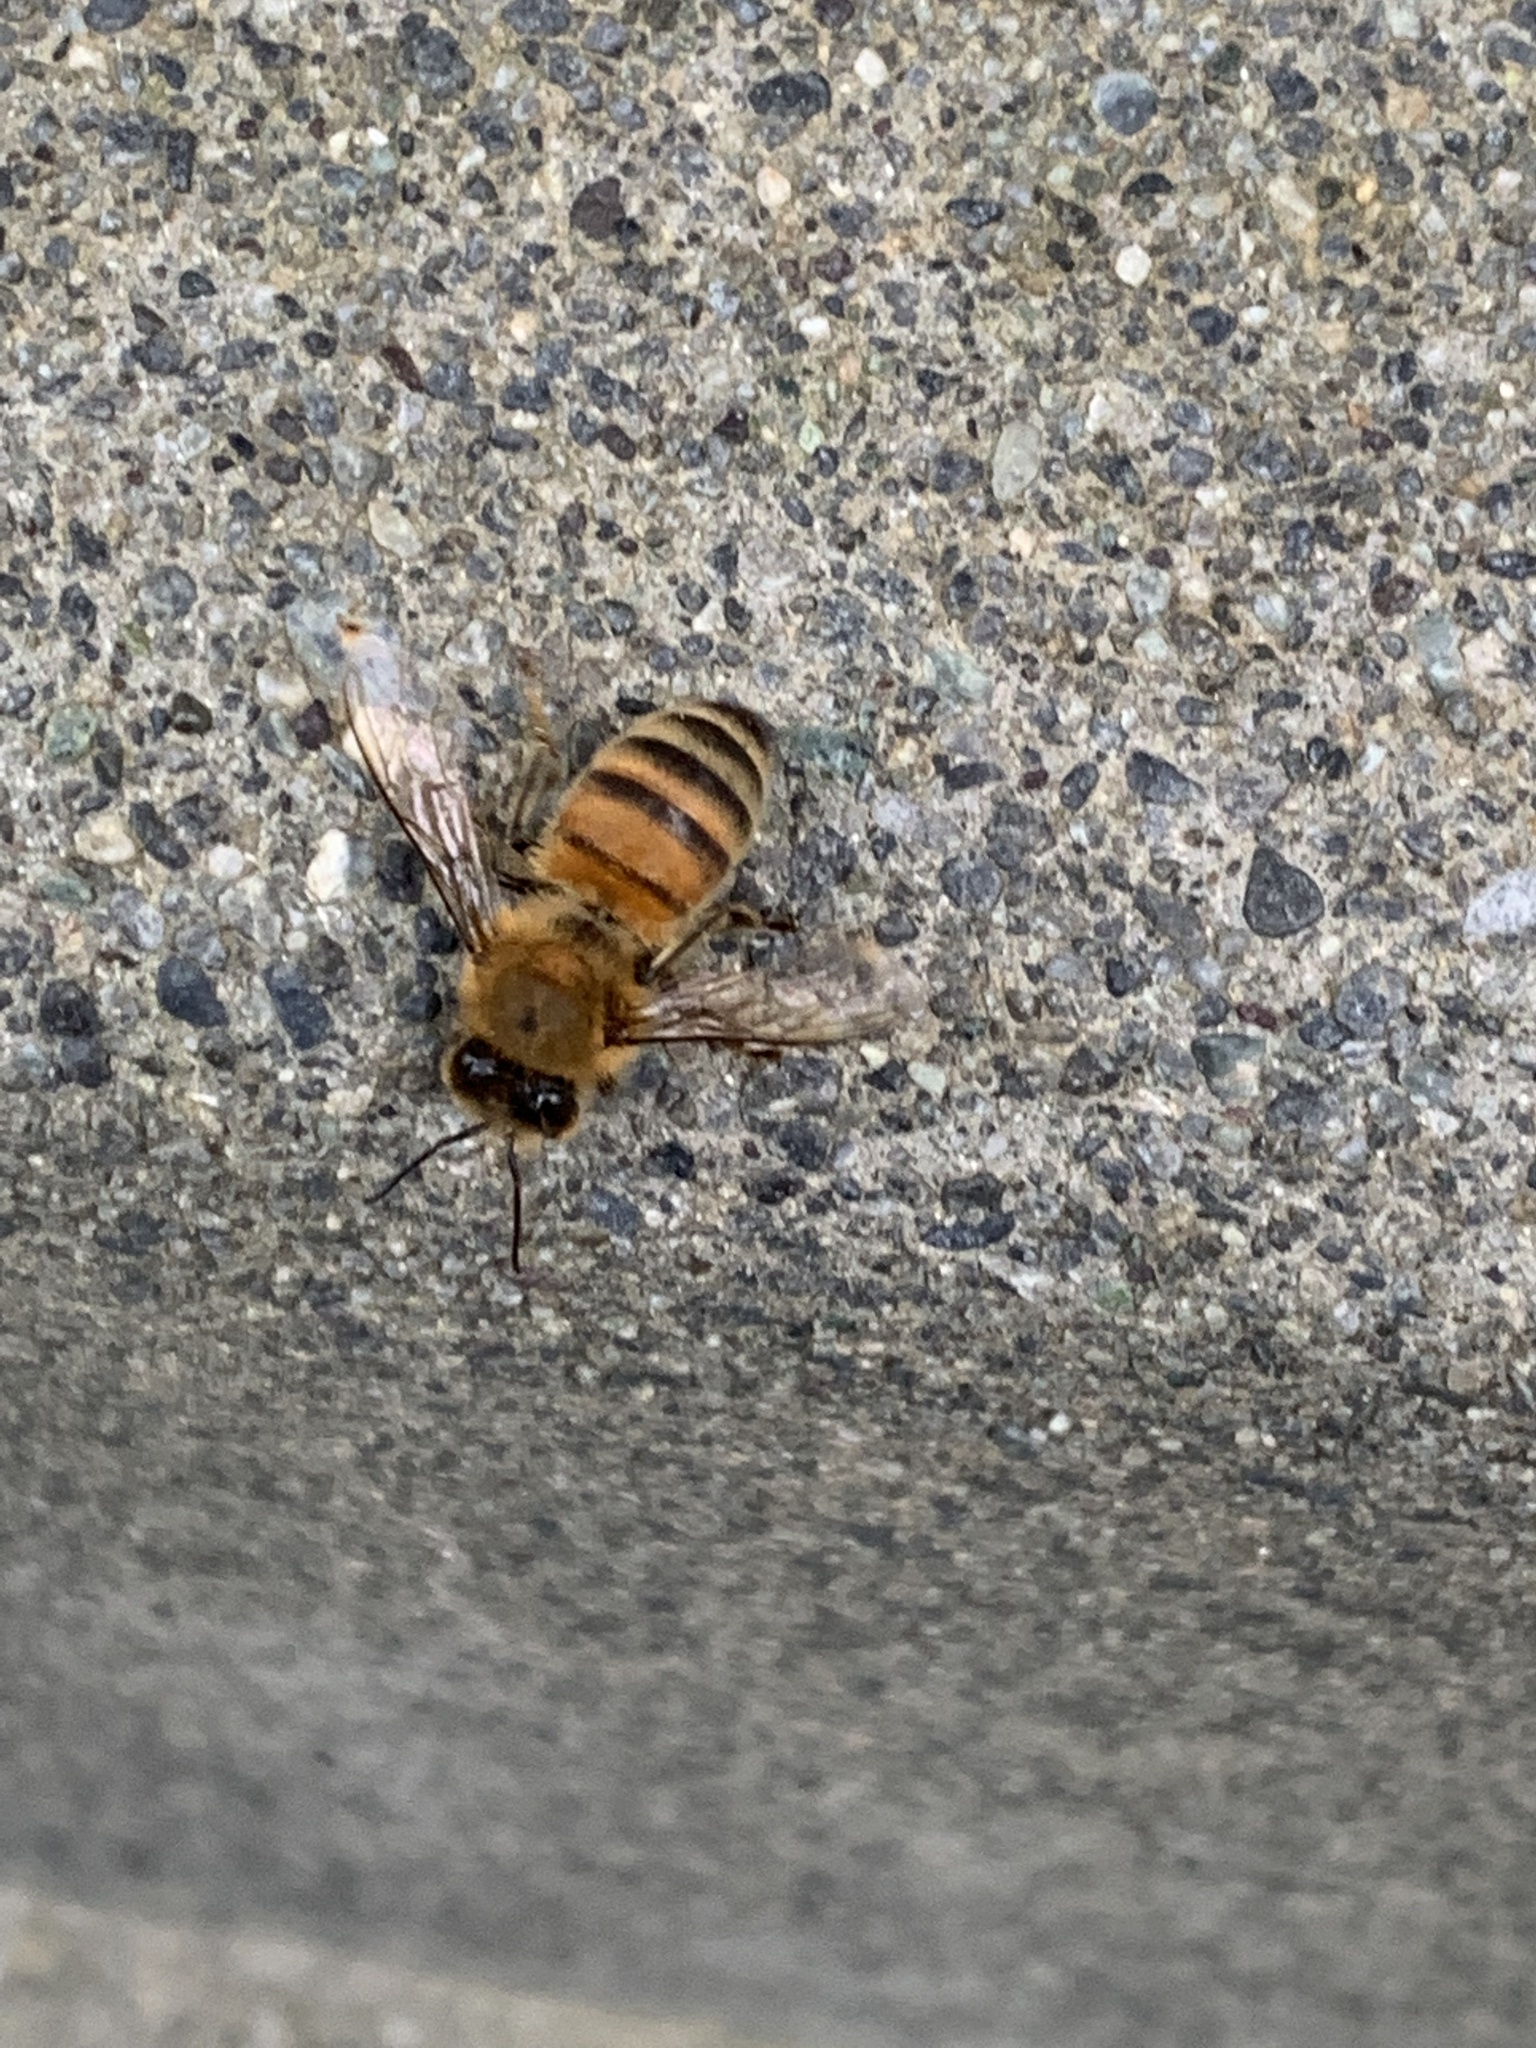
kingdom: Animalia
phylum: Arthropoda
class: Insecta
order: Hymenoptera
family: Apidae
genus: Apis
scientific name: Apis mellifera
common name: Honey bee
